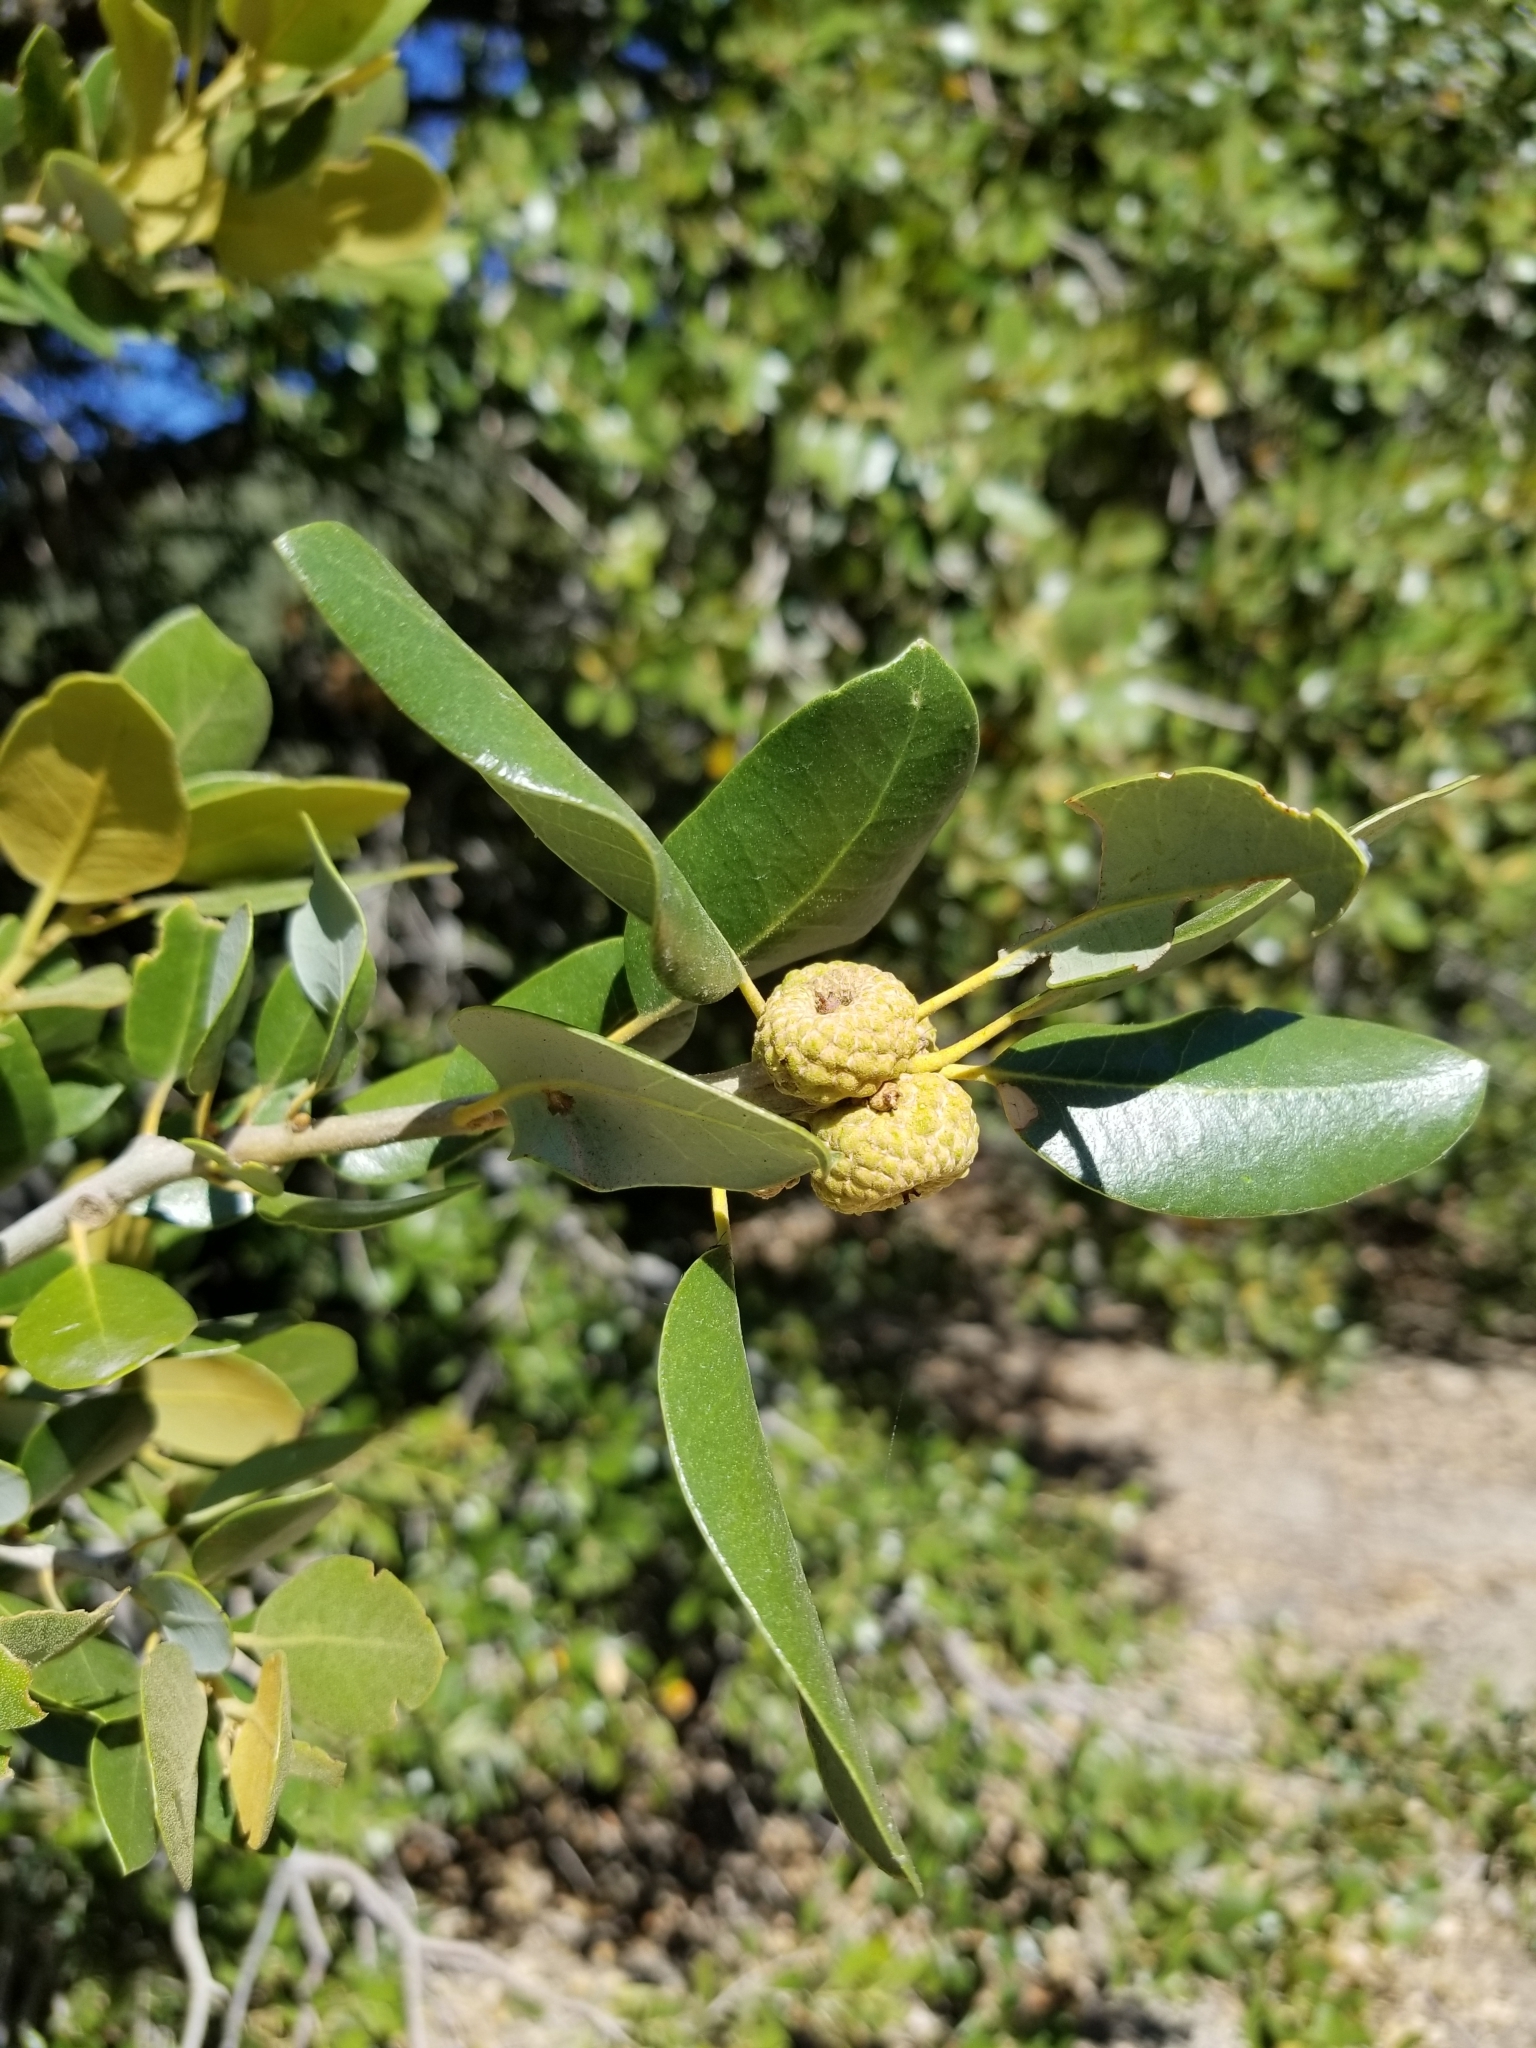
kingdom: Plantae
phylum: Tracheophyta
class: Magnoliopsida
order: Fagales
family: Fagaceae
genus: Quercus
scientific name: Quercus chrysolepis
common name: Canyon live oak
